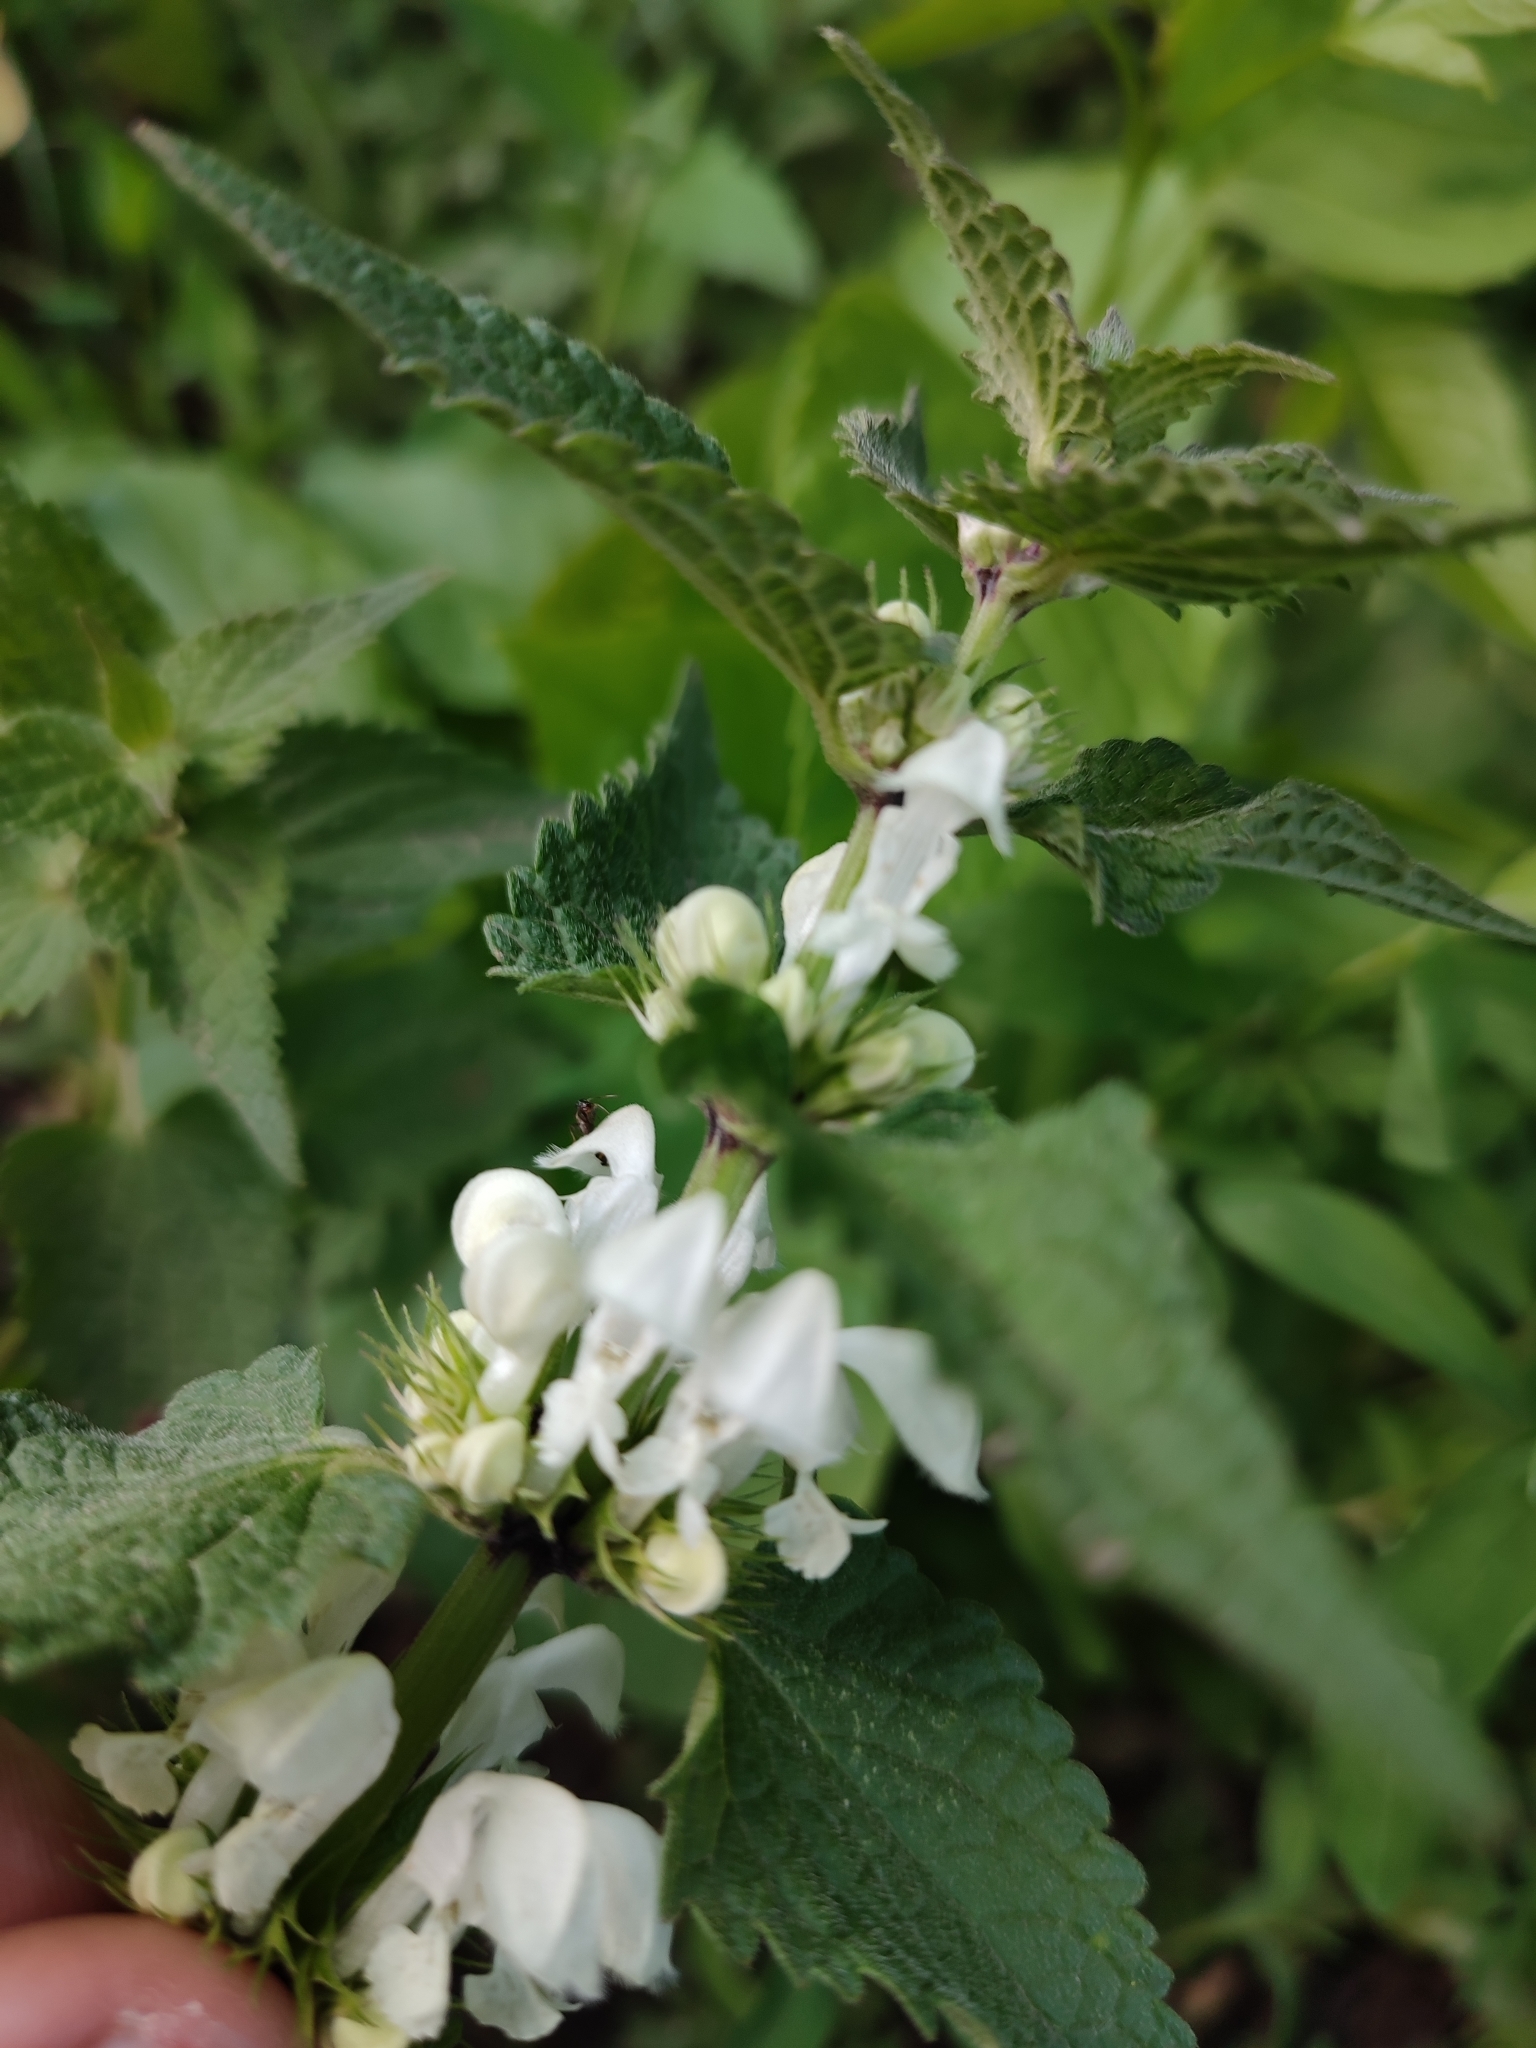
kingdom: Plantae
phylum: Tracheophyta
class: Magnoliopsida
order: Lamiales
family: Lamiaceae
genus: Lamium
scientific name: Lamium album
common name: White dead-nettle
